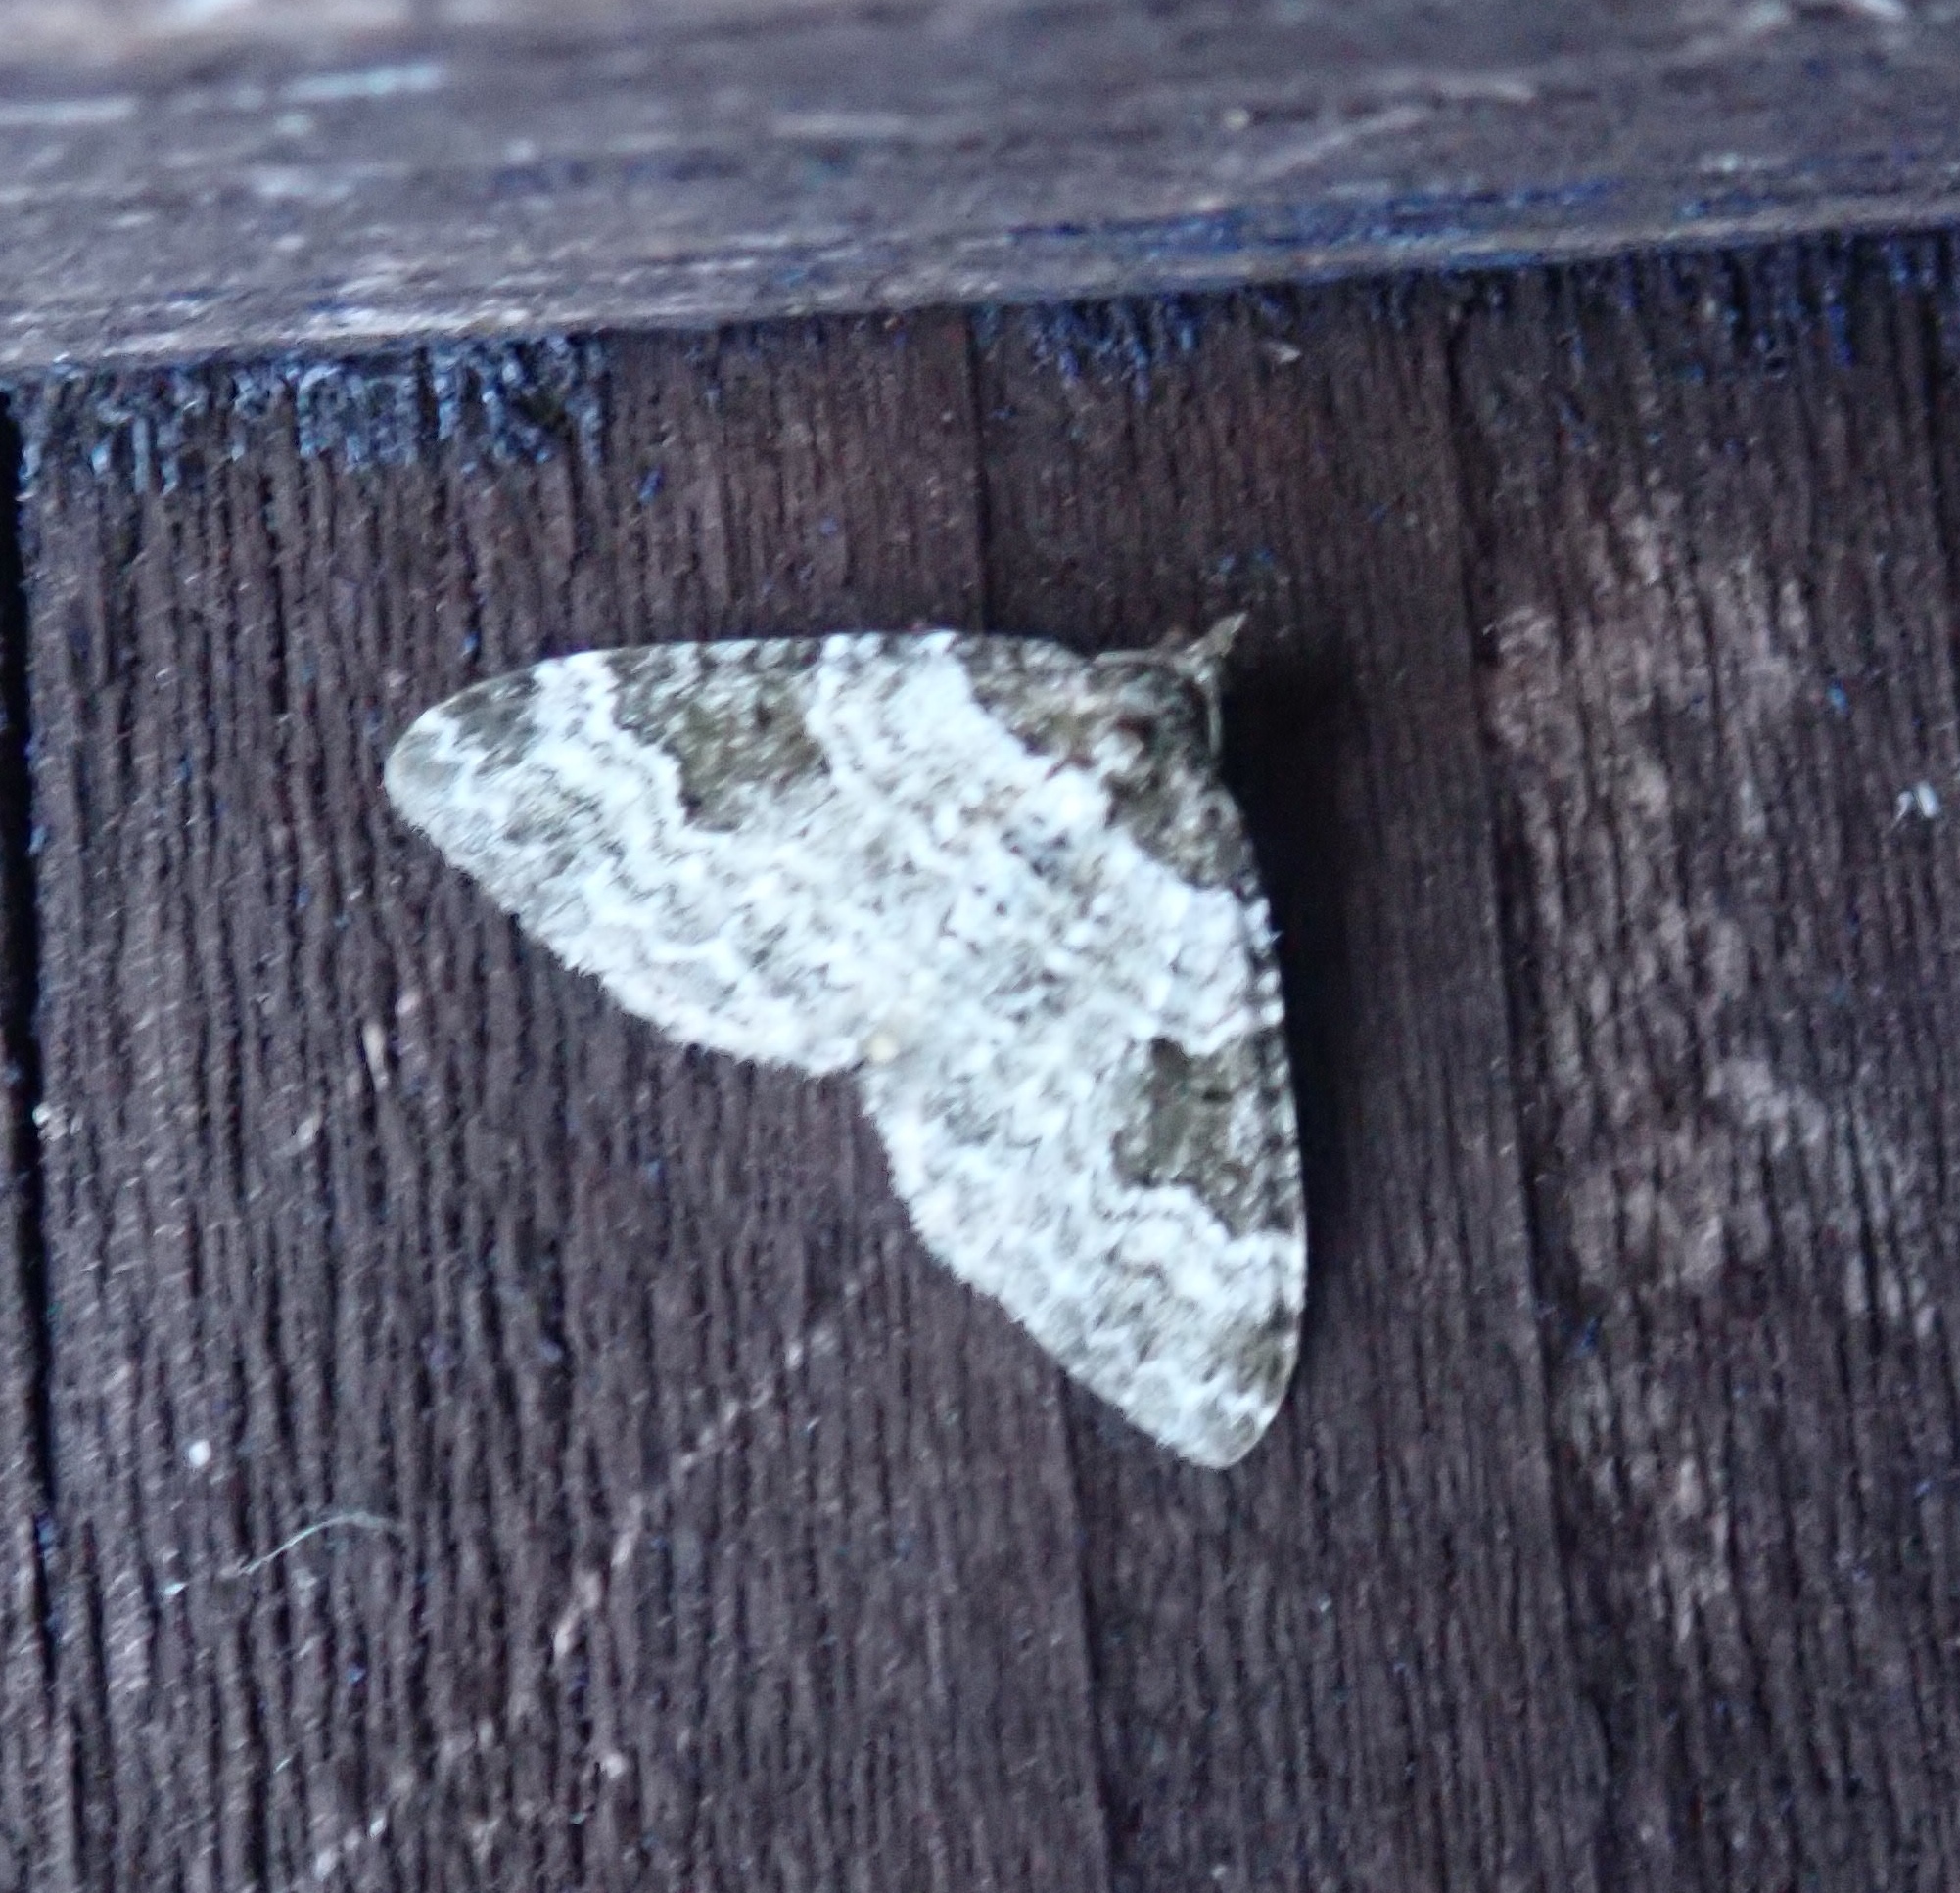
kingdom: Animalia
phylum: Arthropoda
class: Insecta
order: Lepidoptera
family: Geometridae
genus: Xanthorhoe
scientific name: Xanthorhoe fluctuata
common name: Garden carpet
